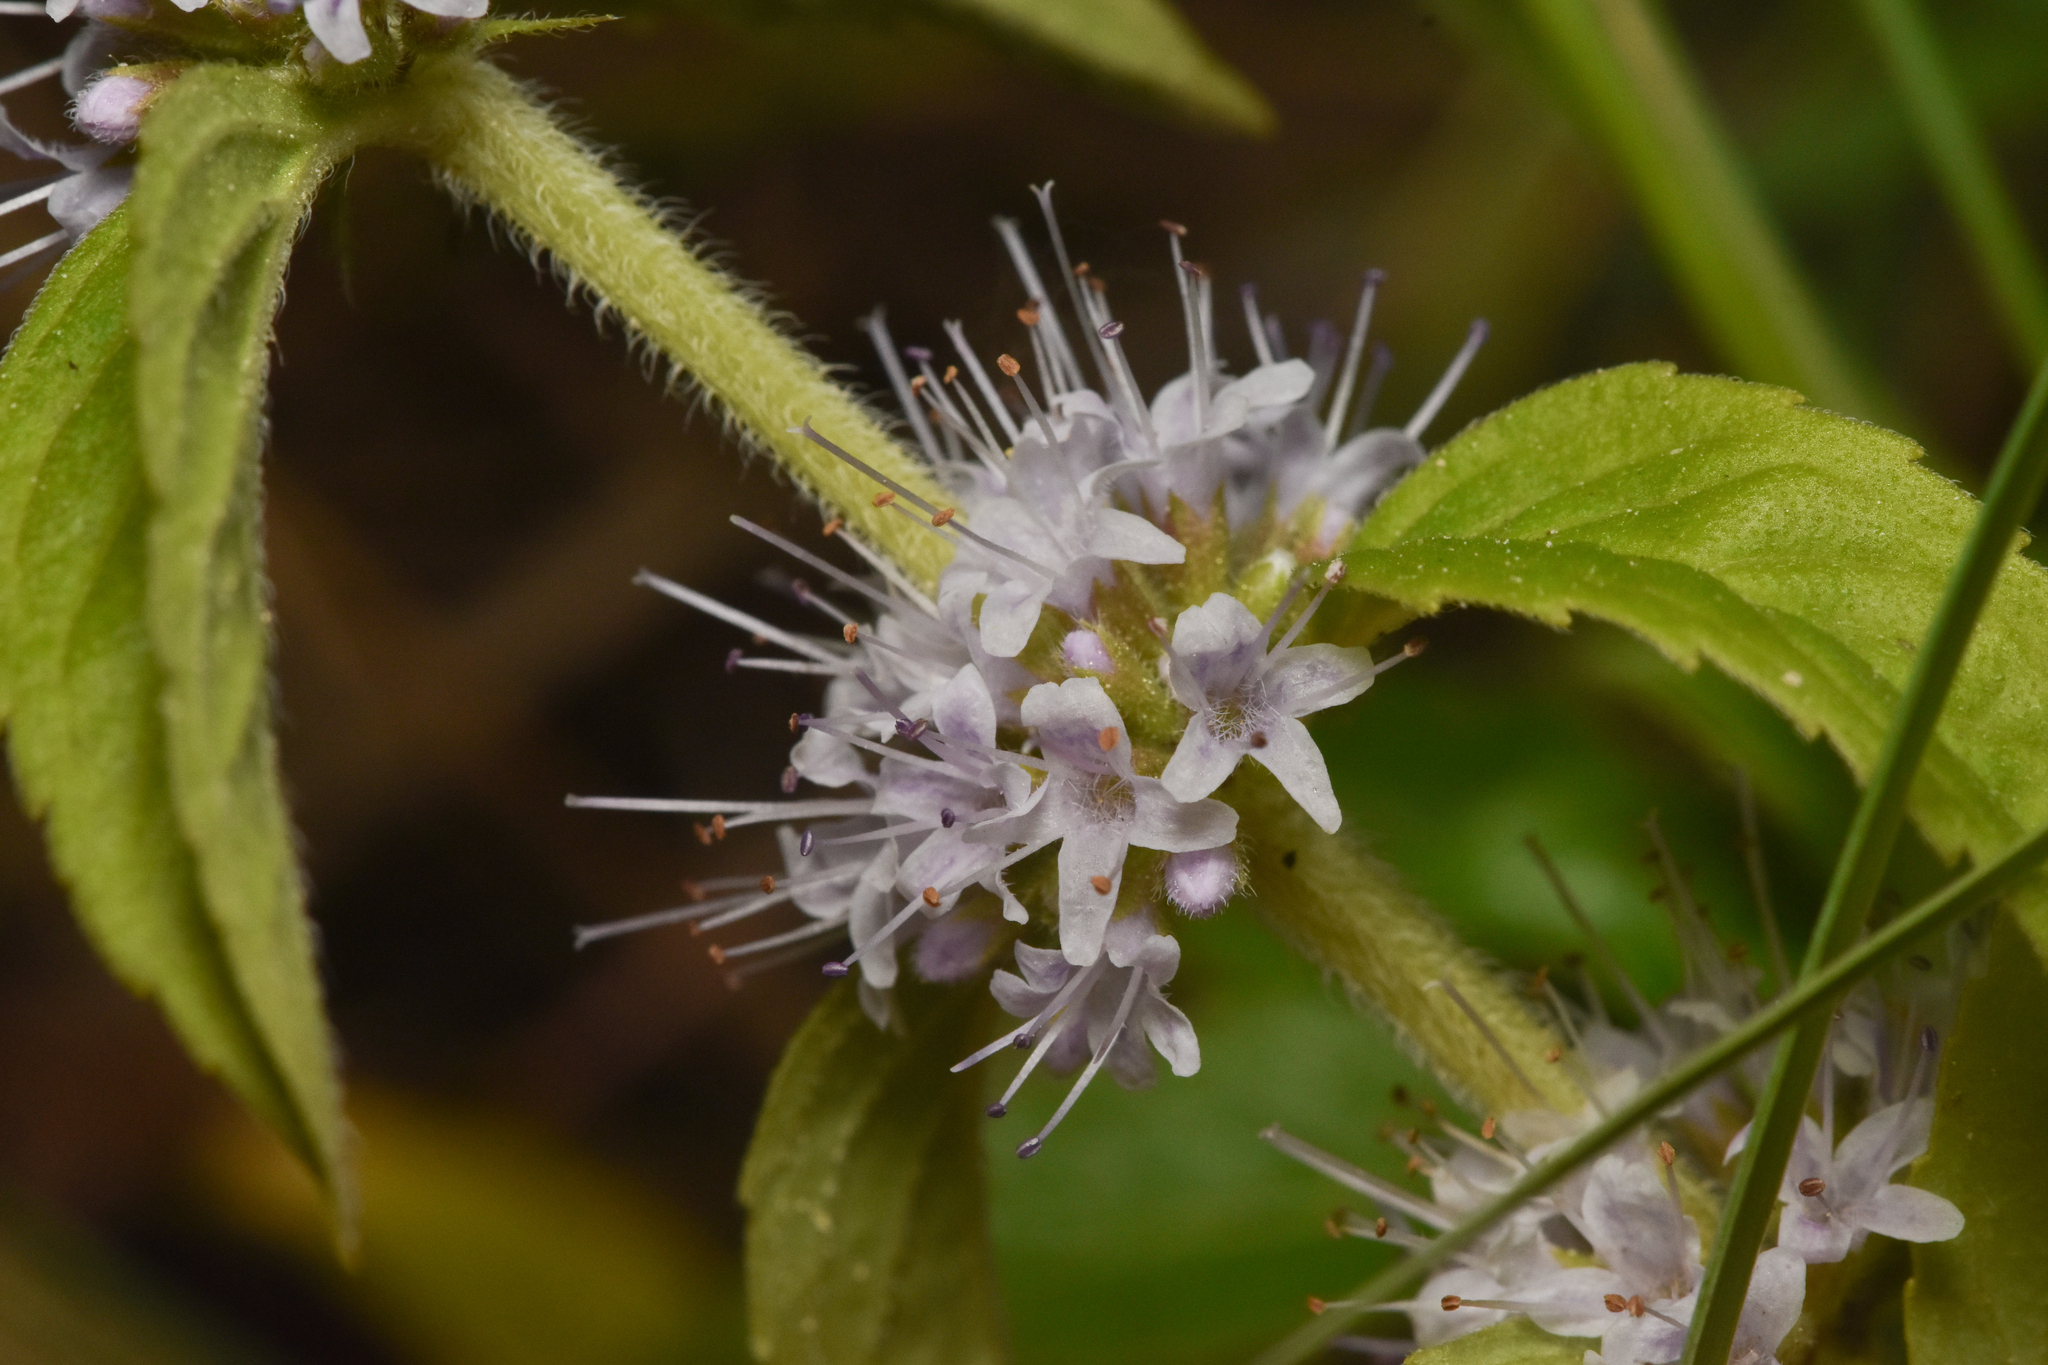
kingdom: Plantae
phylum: Tracheophyta
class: Magnoliopsida
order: Lamiales
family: Lamiaceae
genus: Mentha
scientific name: Mentha canadensis
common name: American corn mint
